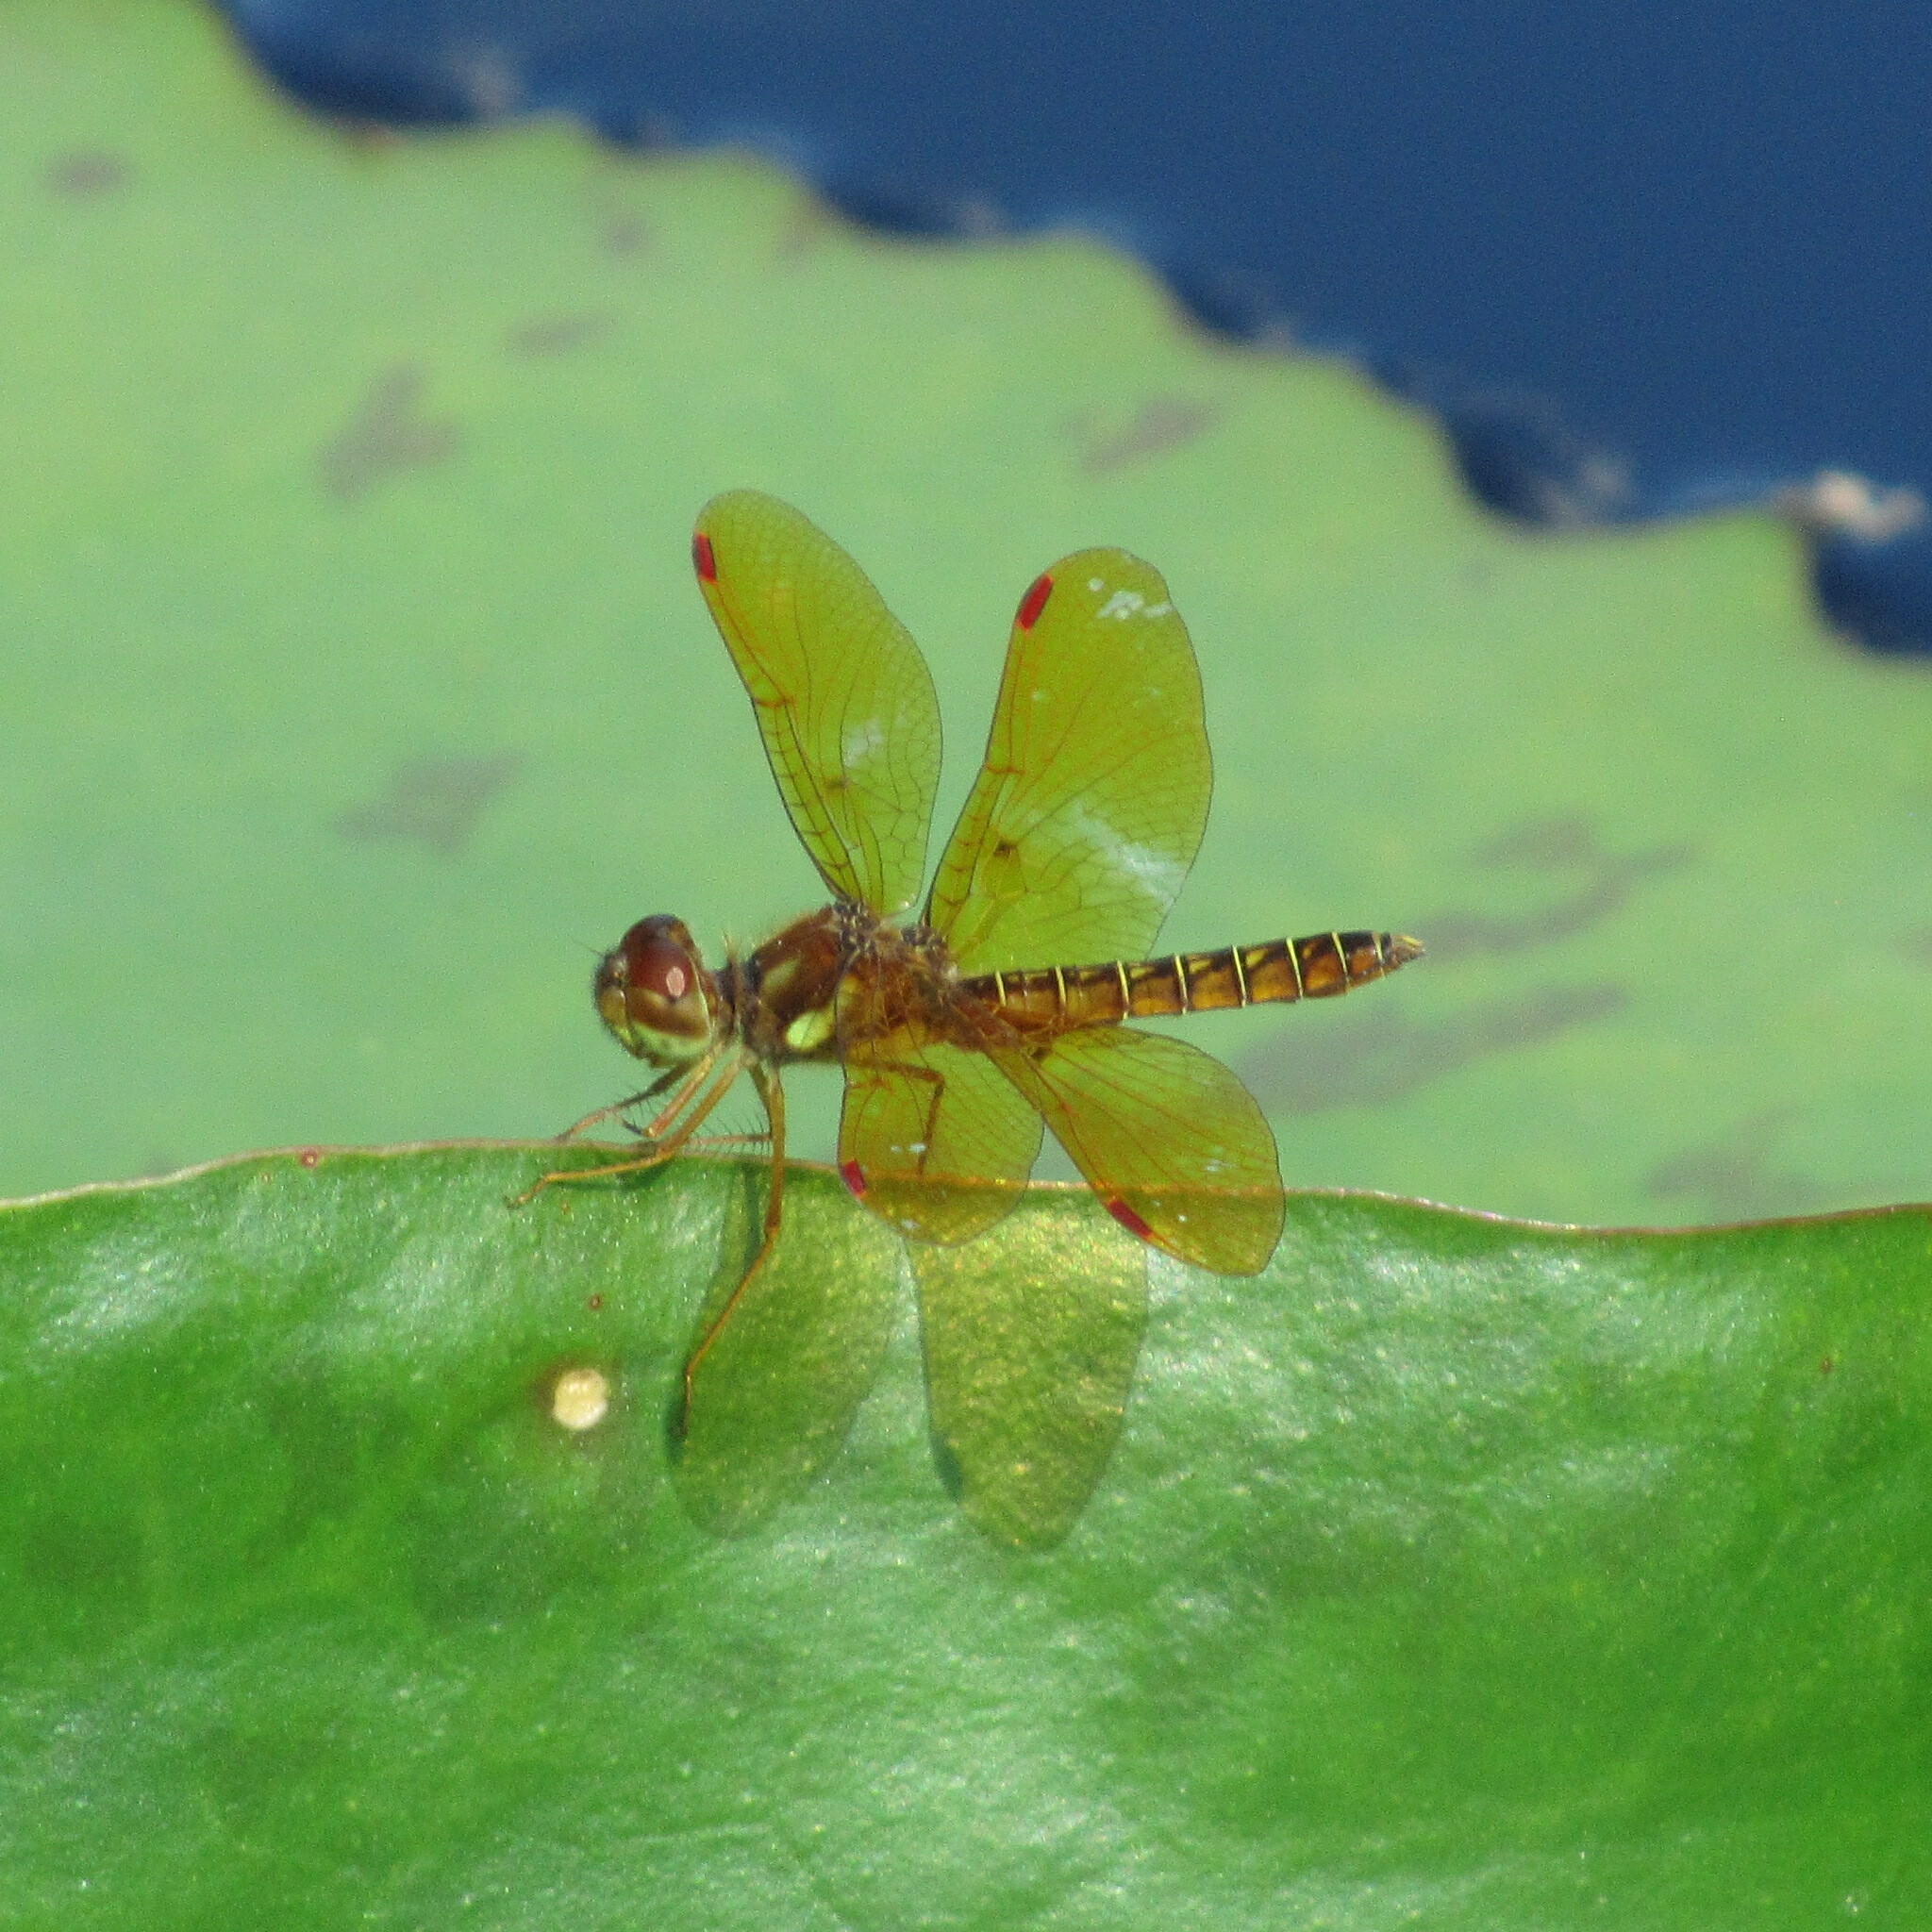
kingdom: Animalia
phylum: Arthropoda
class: Insecta
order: Odonata
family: Libellulidae
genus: Perithemis
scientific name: Perithemis tenera
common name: Eastern amberwing
